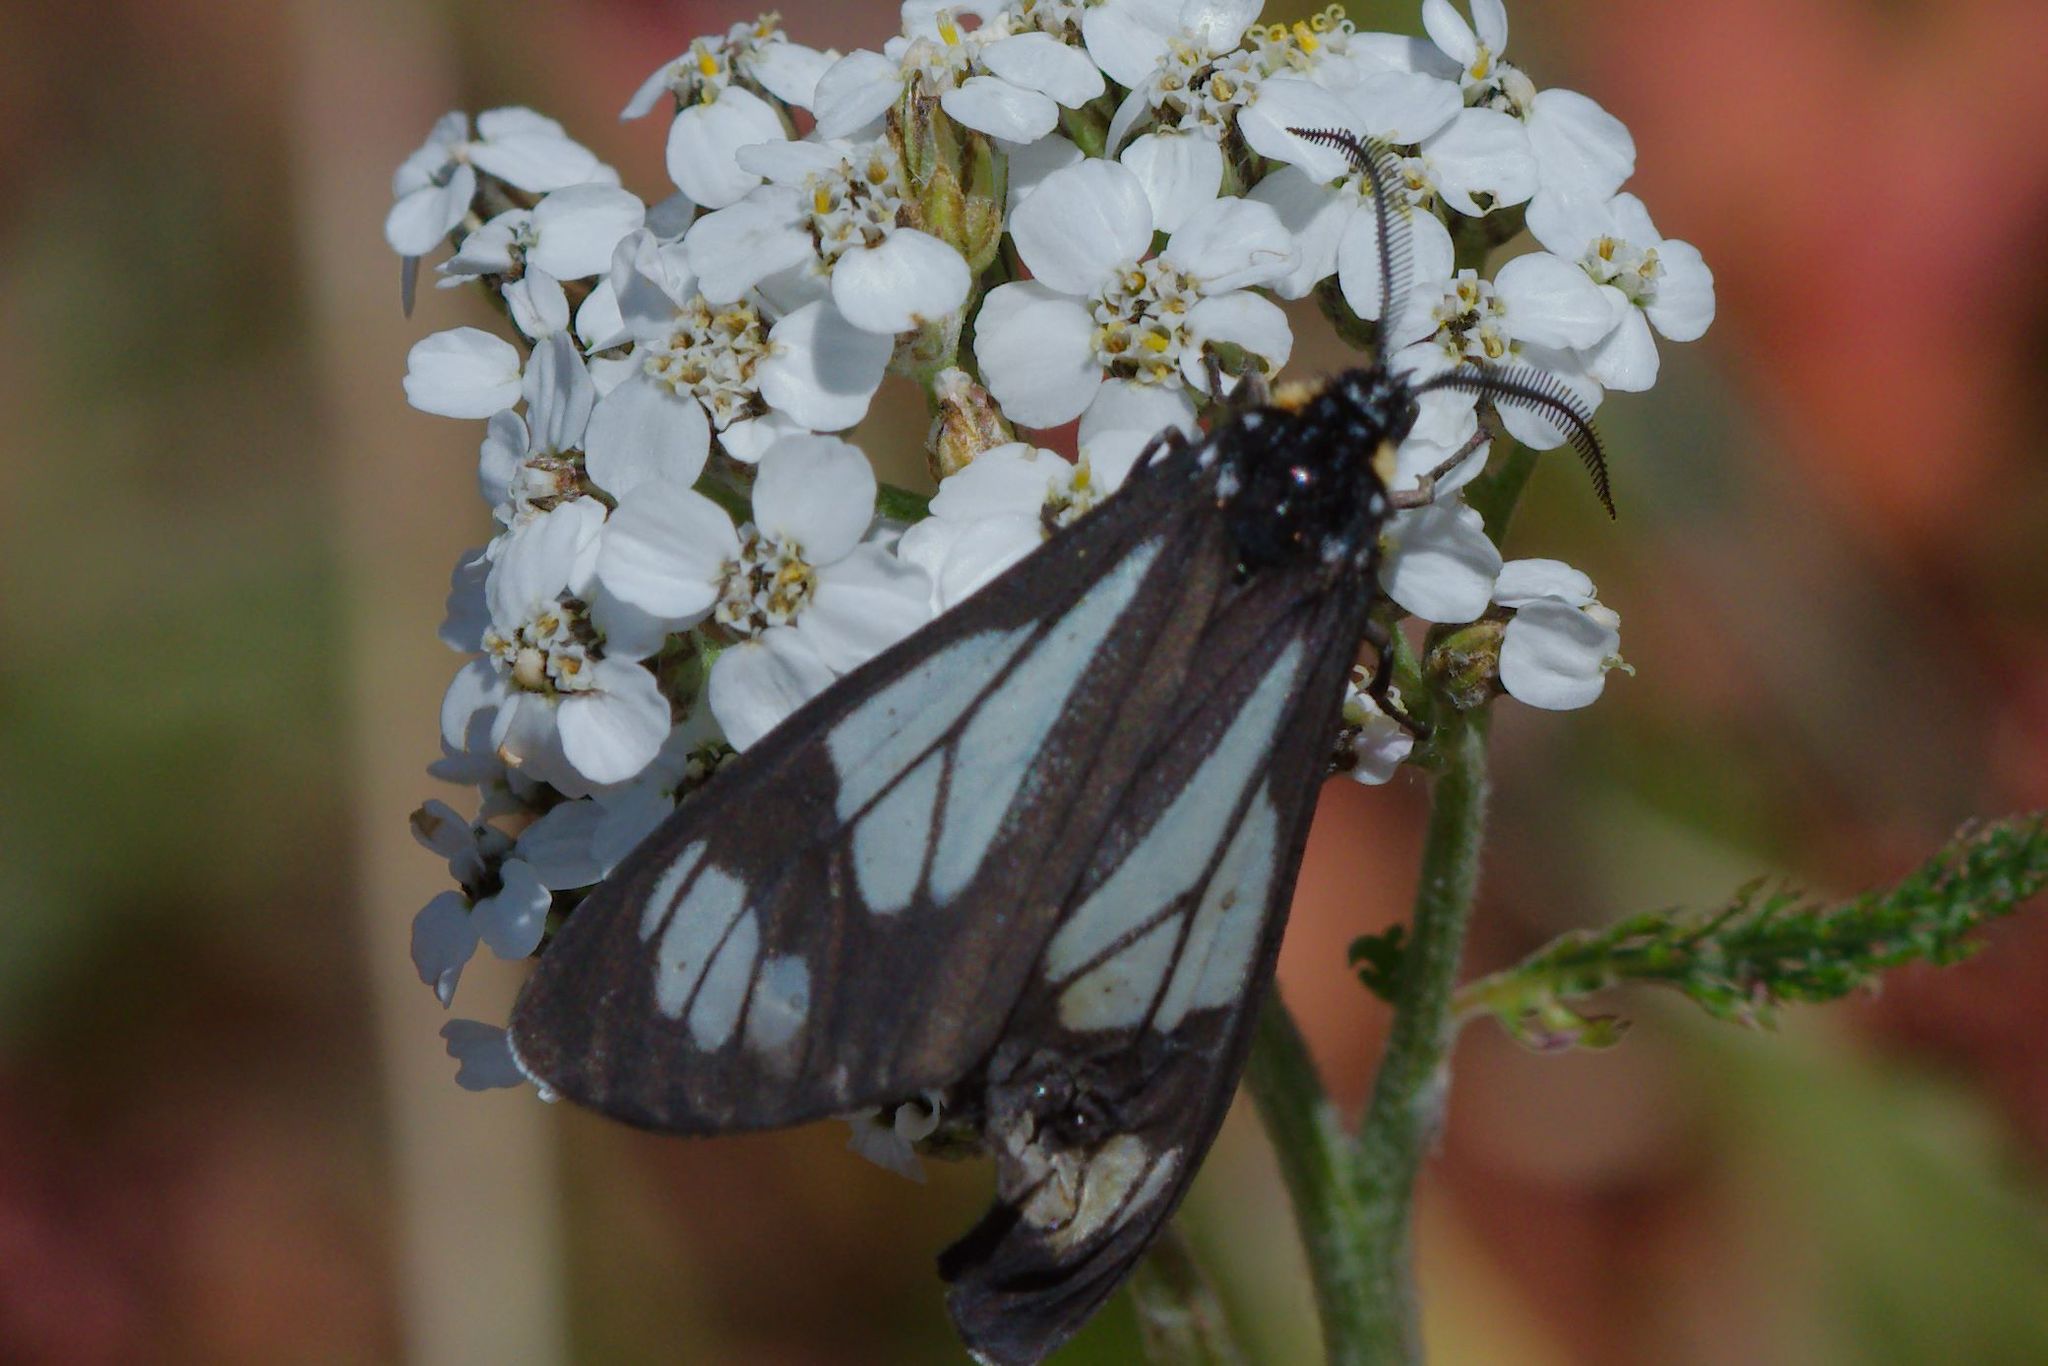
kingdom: Animalia
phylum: Arthropoda
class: Insecta
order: Lepidoptera
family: Erebidae
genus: Gnophaela
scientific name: Gnophaela vermiculata
